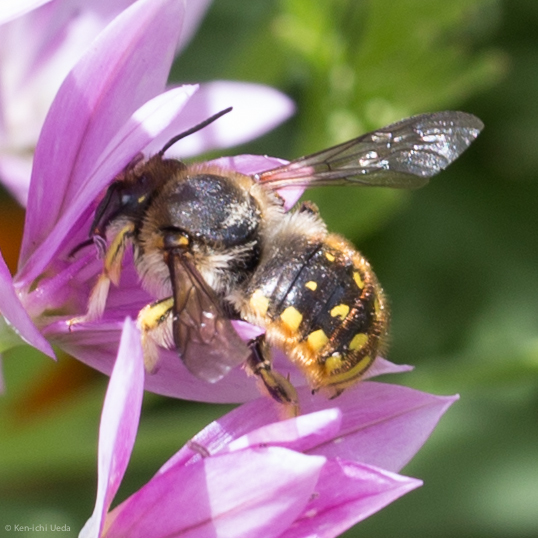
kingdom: Animalia
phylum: Arthropoda
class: Insecta
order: Hymenoptera
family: Megachilidae
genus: Anthidium
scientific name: Anthidium manicatum
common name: Wool carder bee
